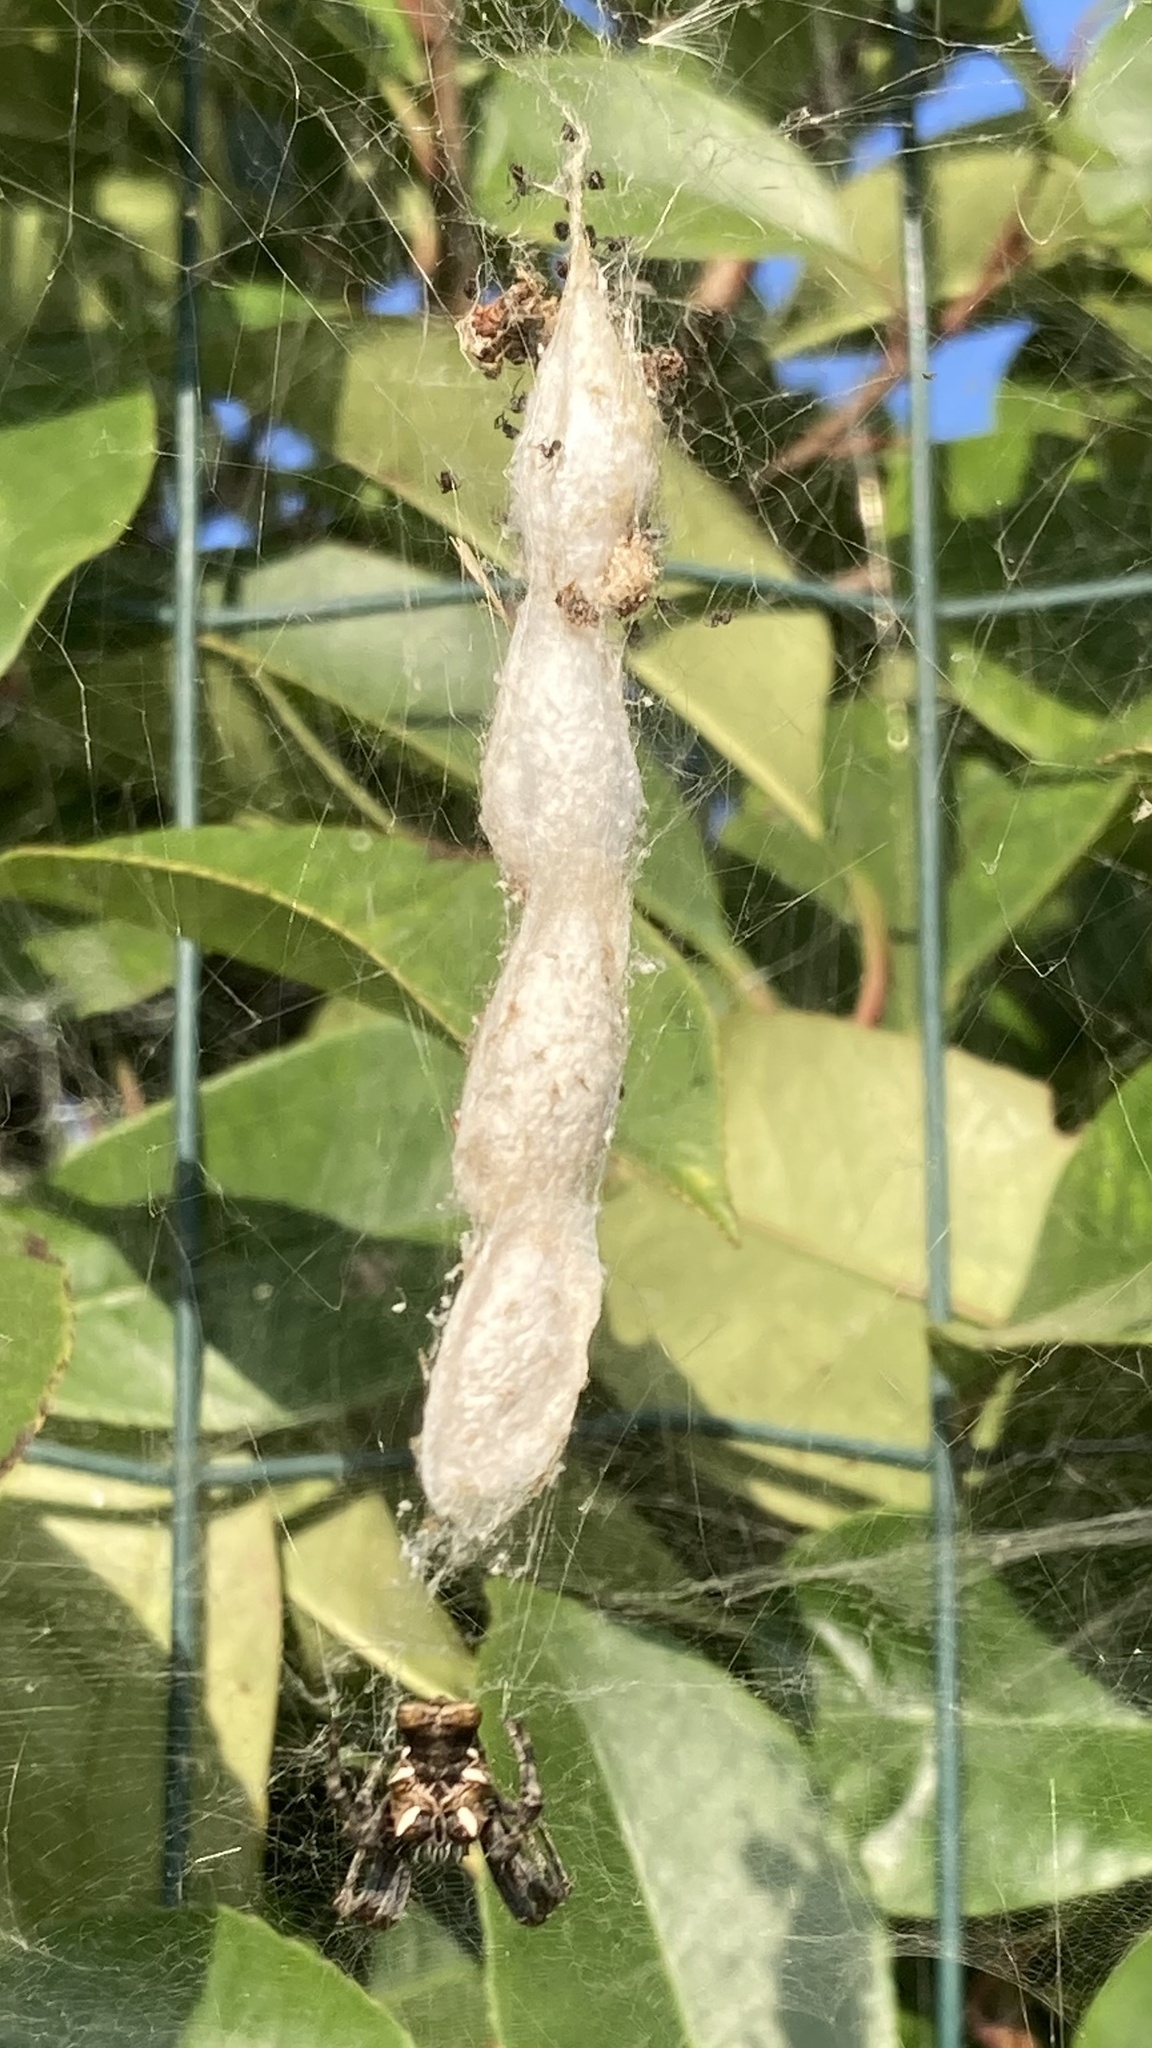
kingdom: Animalia
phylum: Arthropoda
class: Arachnida
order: Araneae
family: Araneidae
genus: Cyrtophora
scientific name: Cyrtophora citricola
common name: Orb weavers
